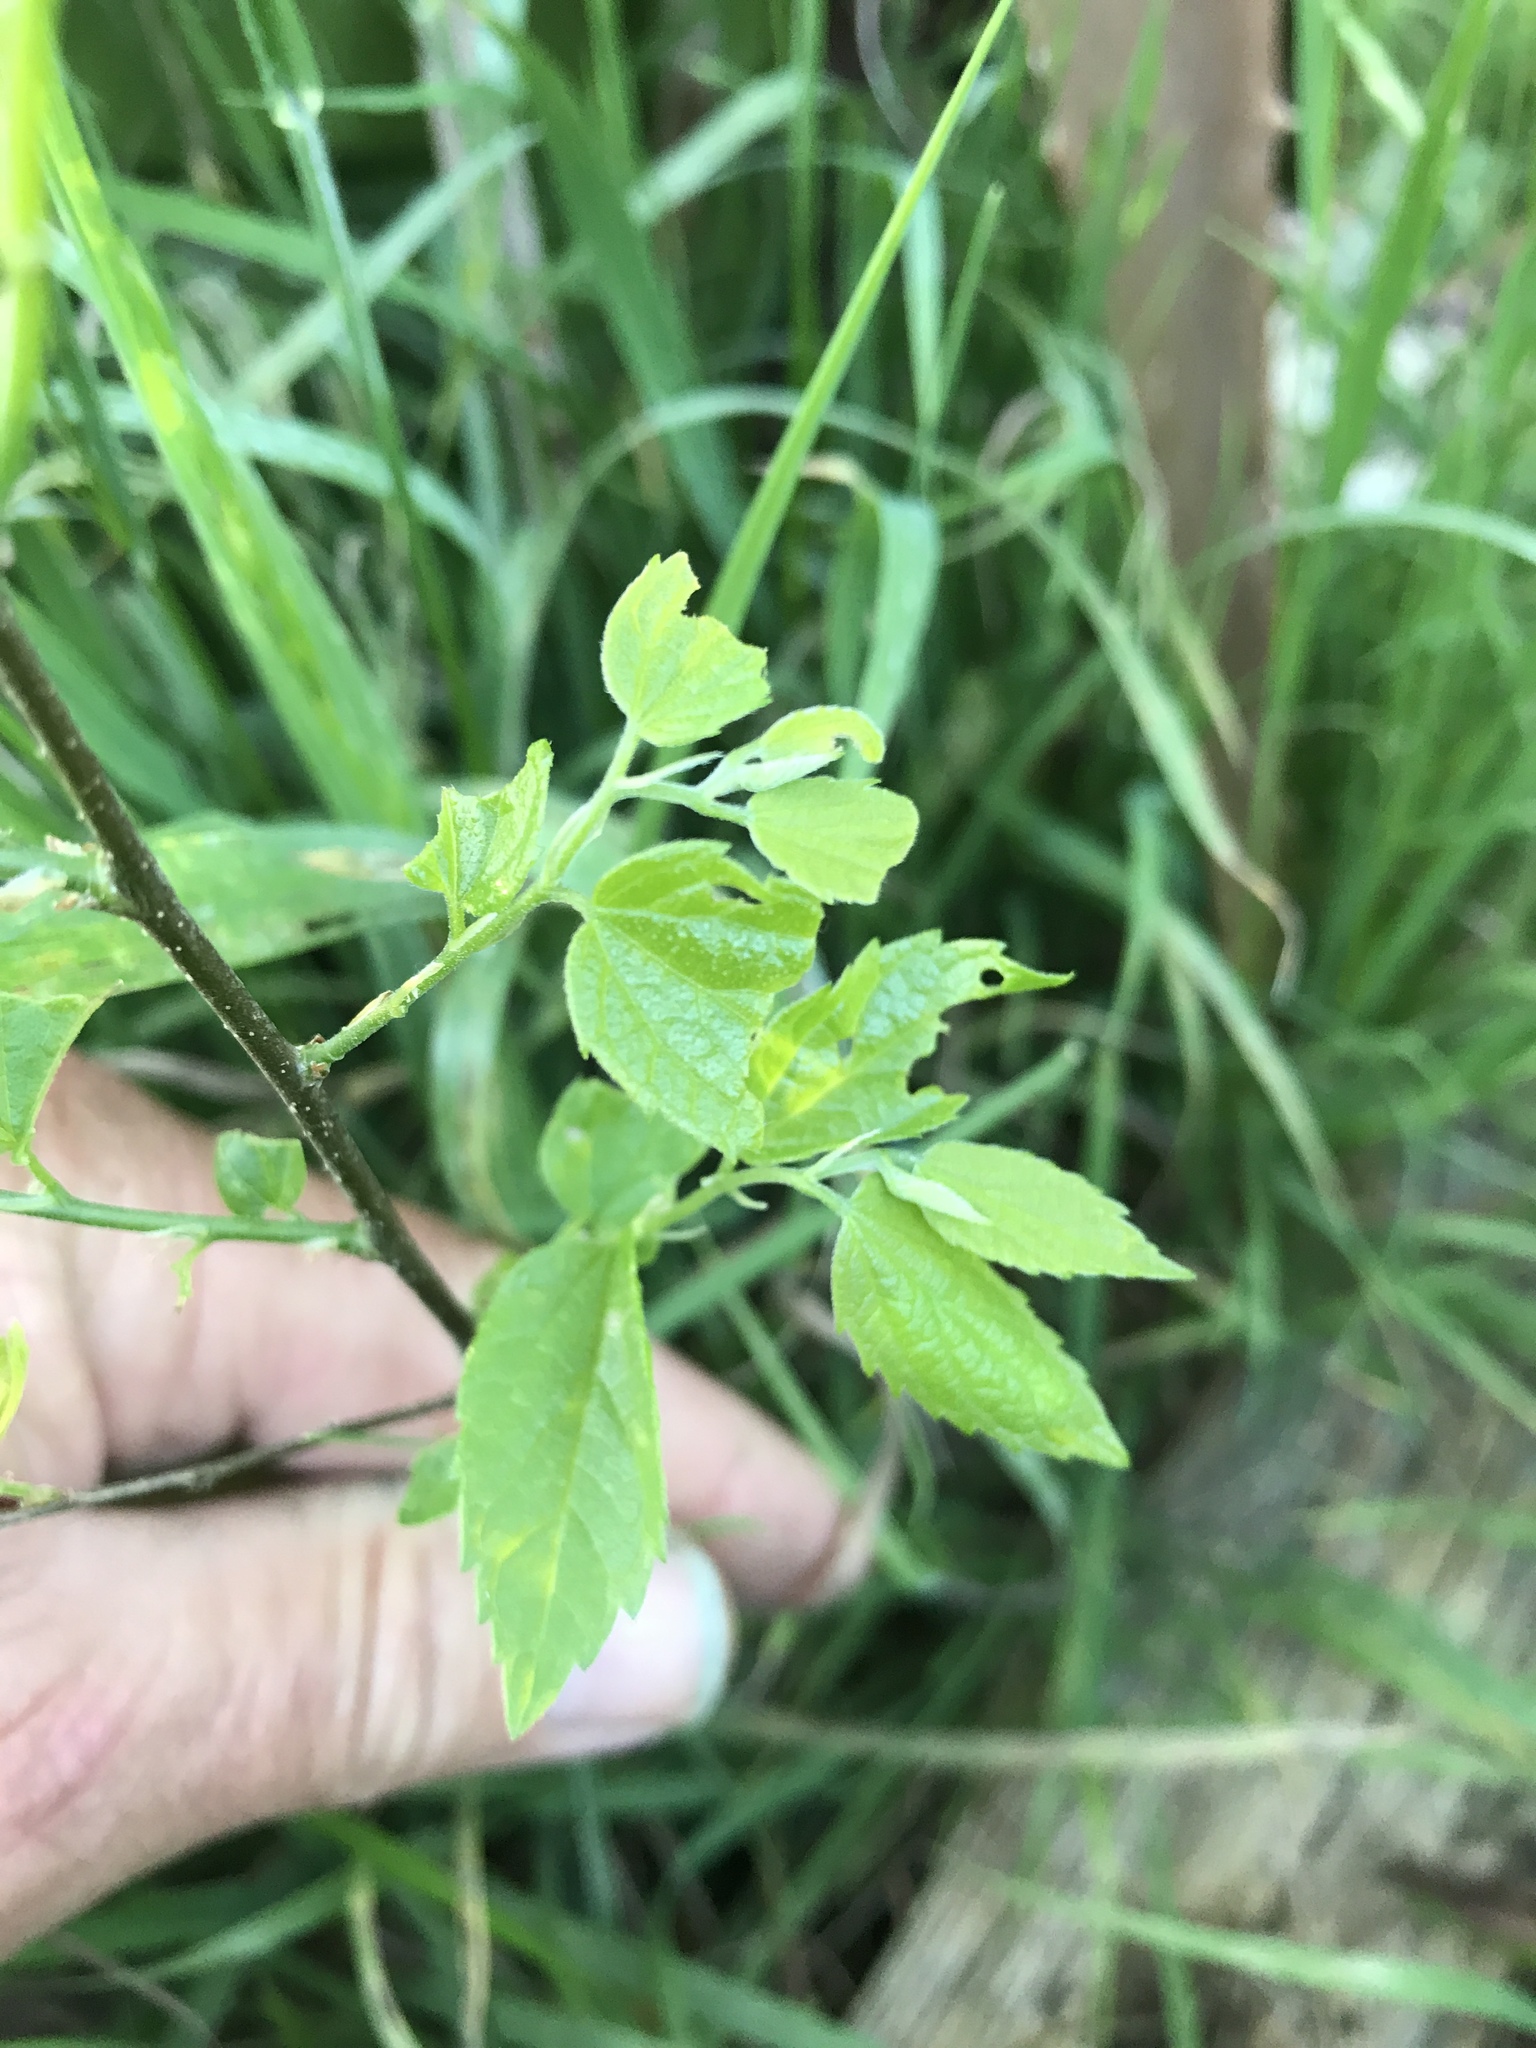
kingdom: Plantae
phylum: Tracheophyta
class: Magnoliopsida
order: Rosales
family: Cannabaceae
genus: Celtis
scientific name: Celtis laevigata
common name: Sugarberry
